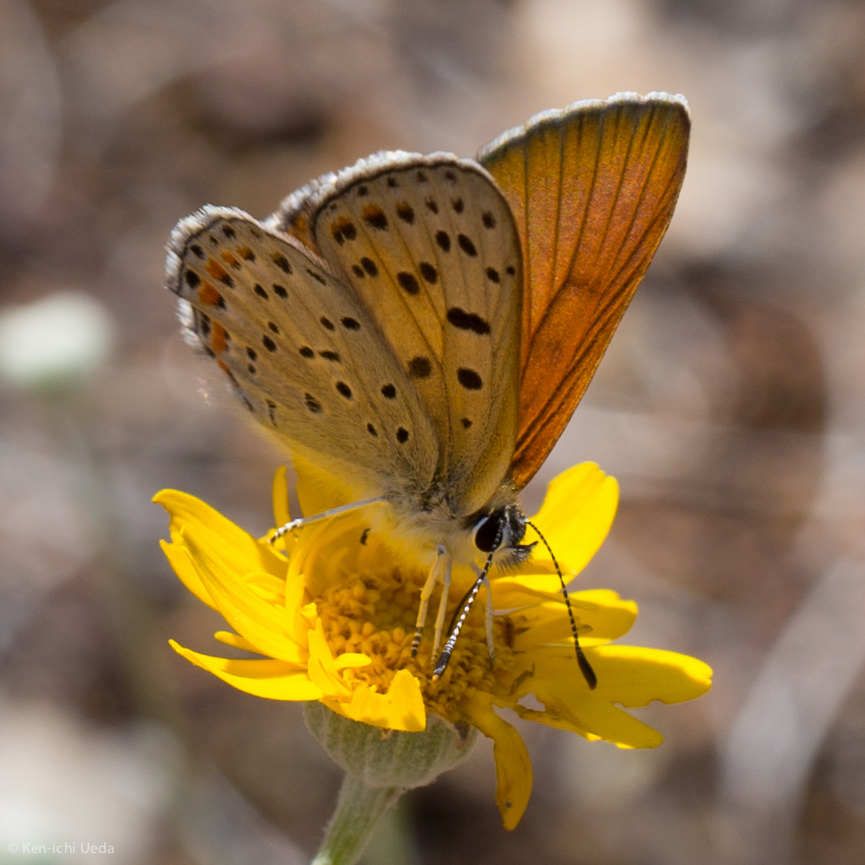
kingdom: Animalia
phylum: Arthropoda
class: Insecta
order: Lepidoptera
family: Lycaenidae
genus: Tharsalea
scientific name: Tharsalea gorgon
